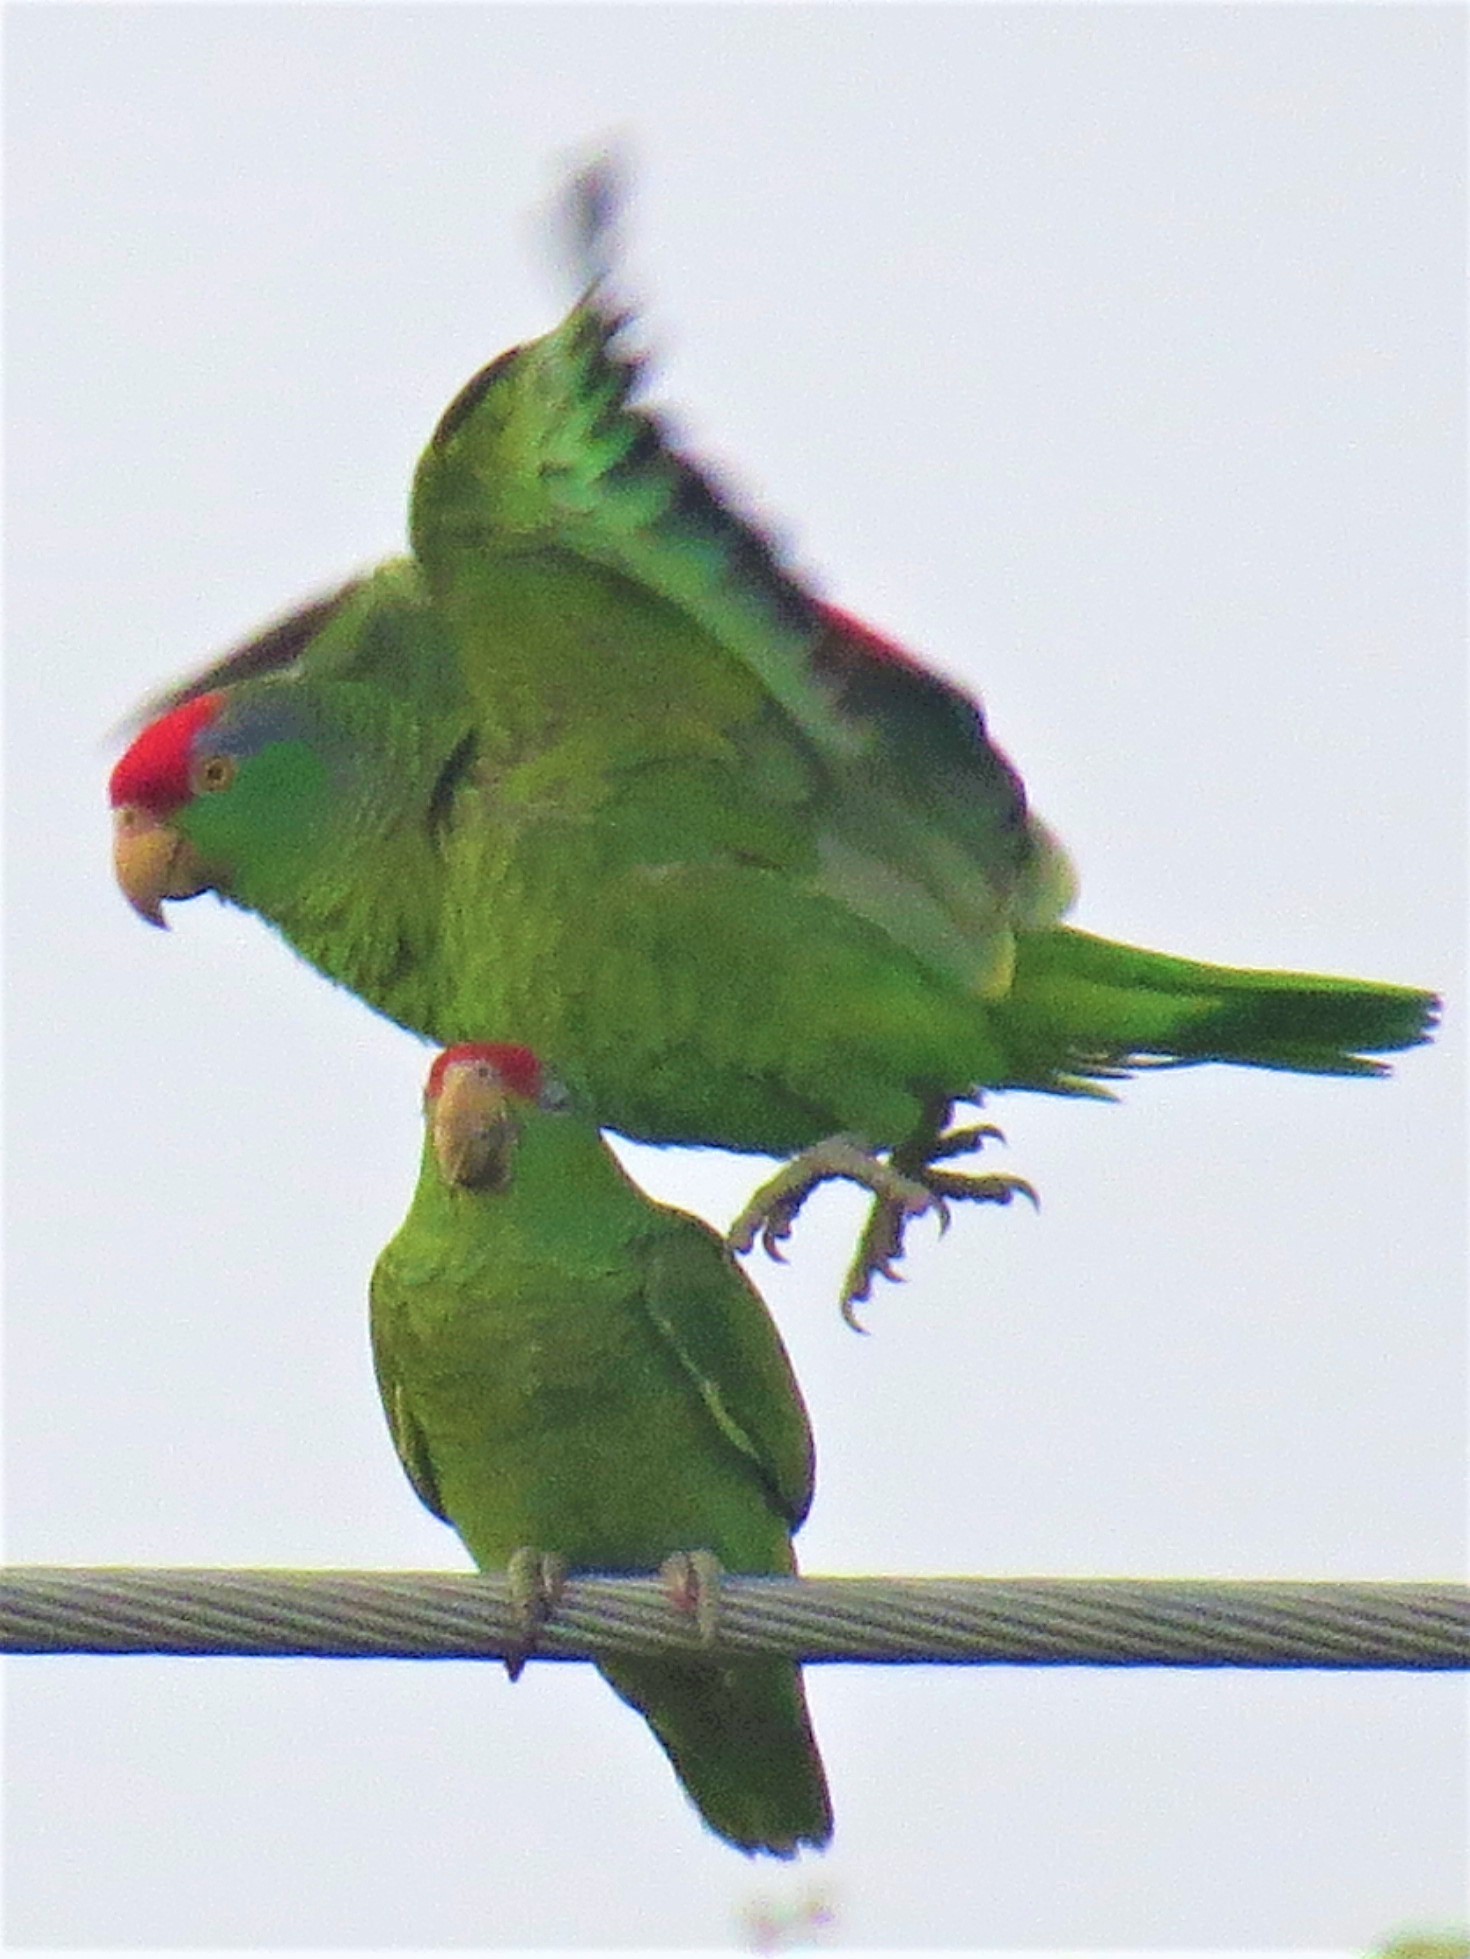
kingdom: Animalia
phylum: Chordata
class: Aves
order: Psittaciformes
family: Psittacidae
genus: Amazona
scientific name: Amazona viridigenalis
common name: Red-crowned amazon
